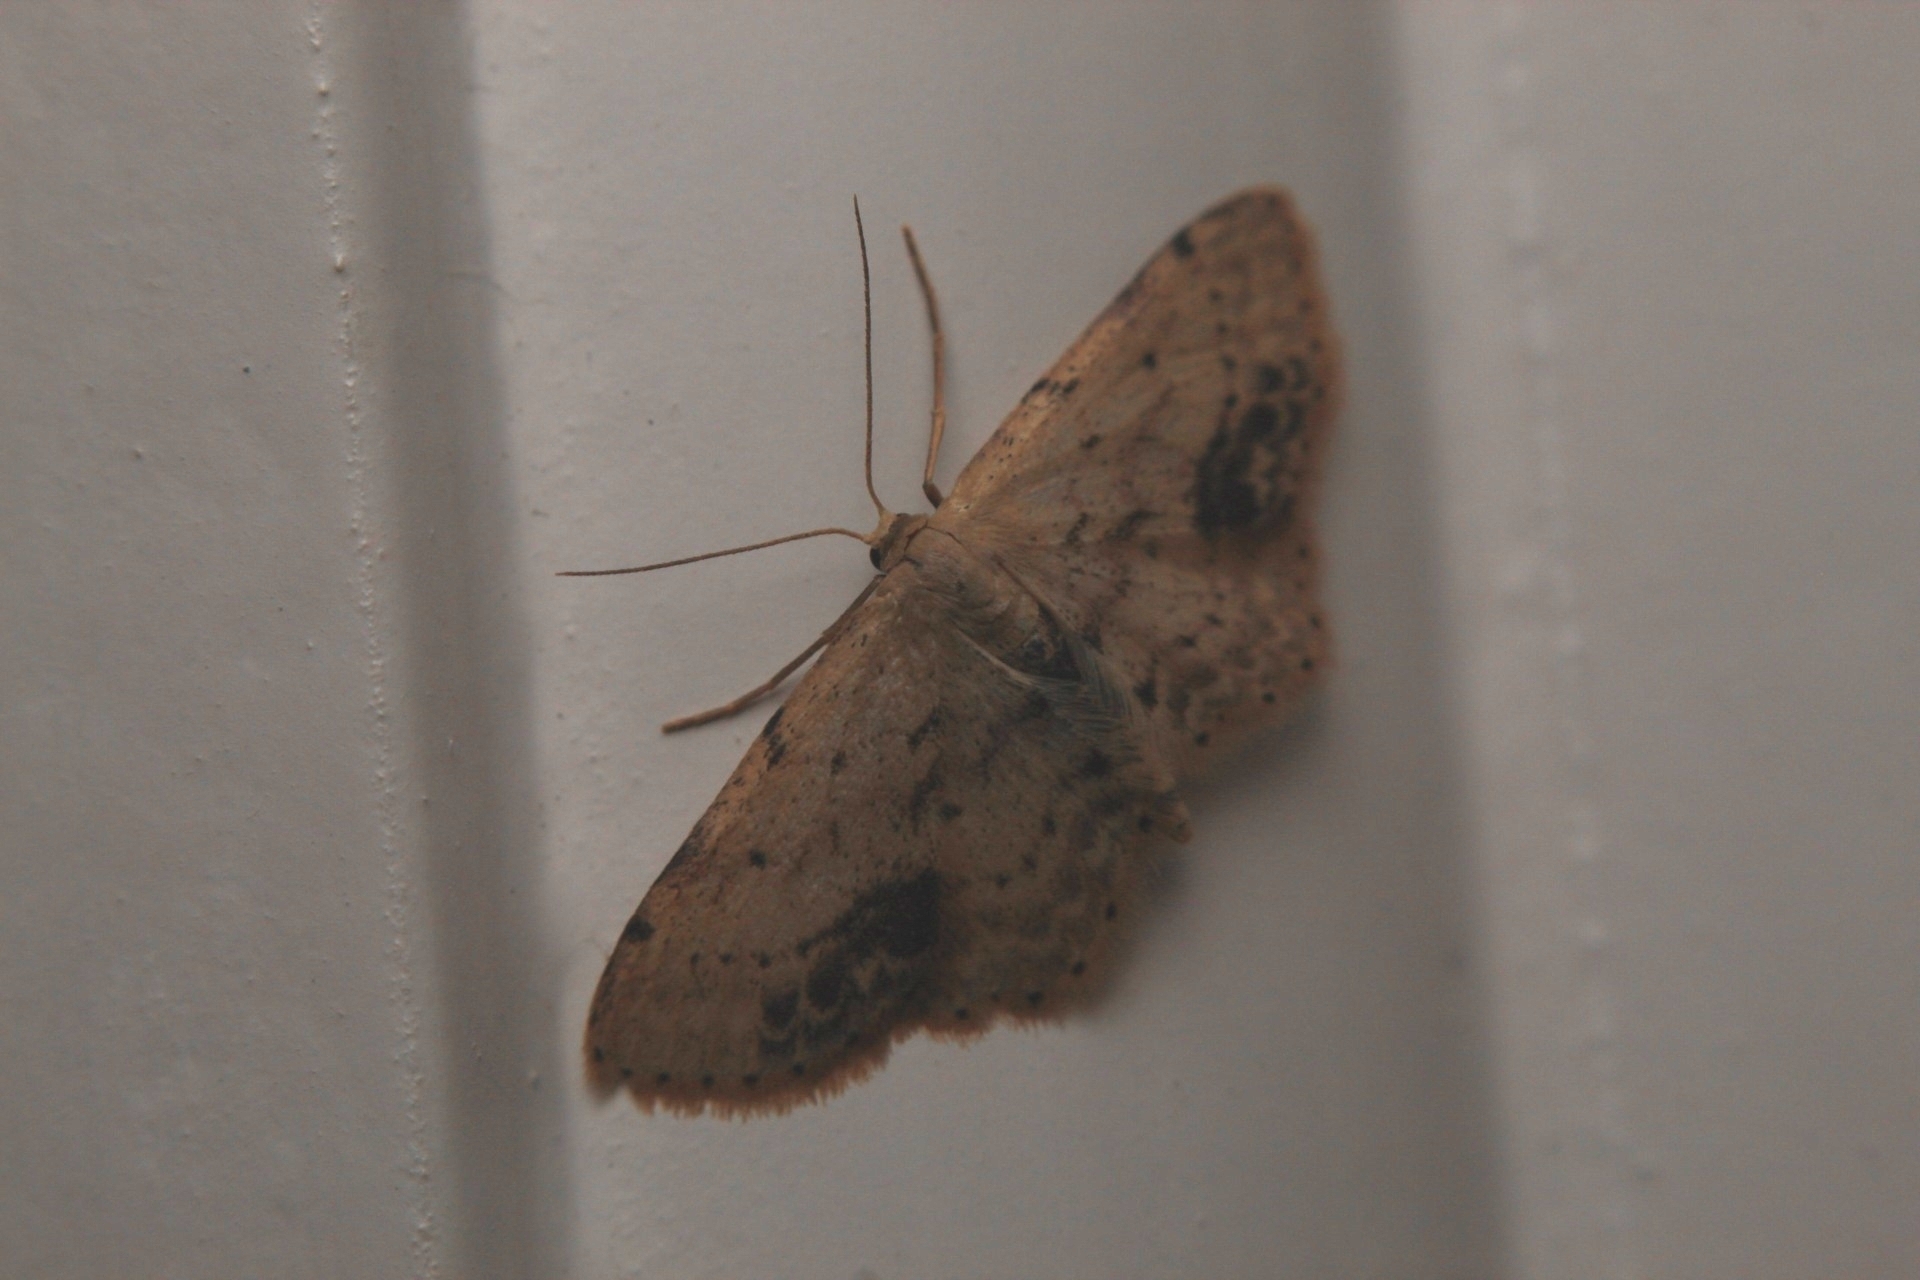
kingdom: Animalia
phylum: Arthropoda
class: Insecta
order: Lepidoptera
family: Geometridae
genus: Idaea
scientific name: Idaea dimidiata
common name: Single-dotted wave
